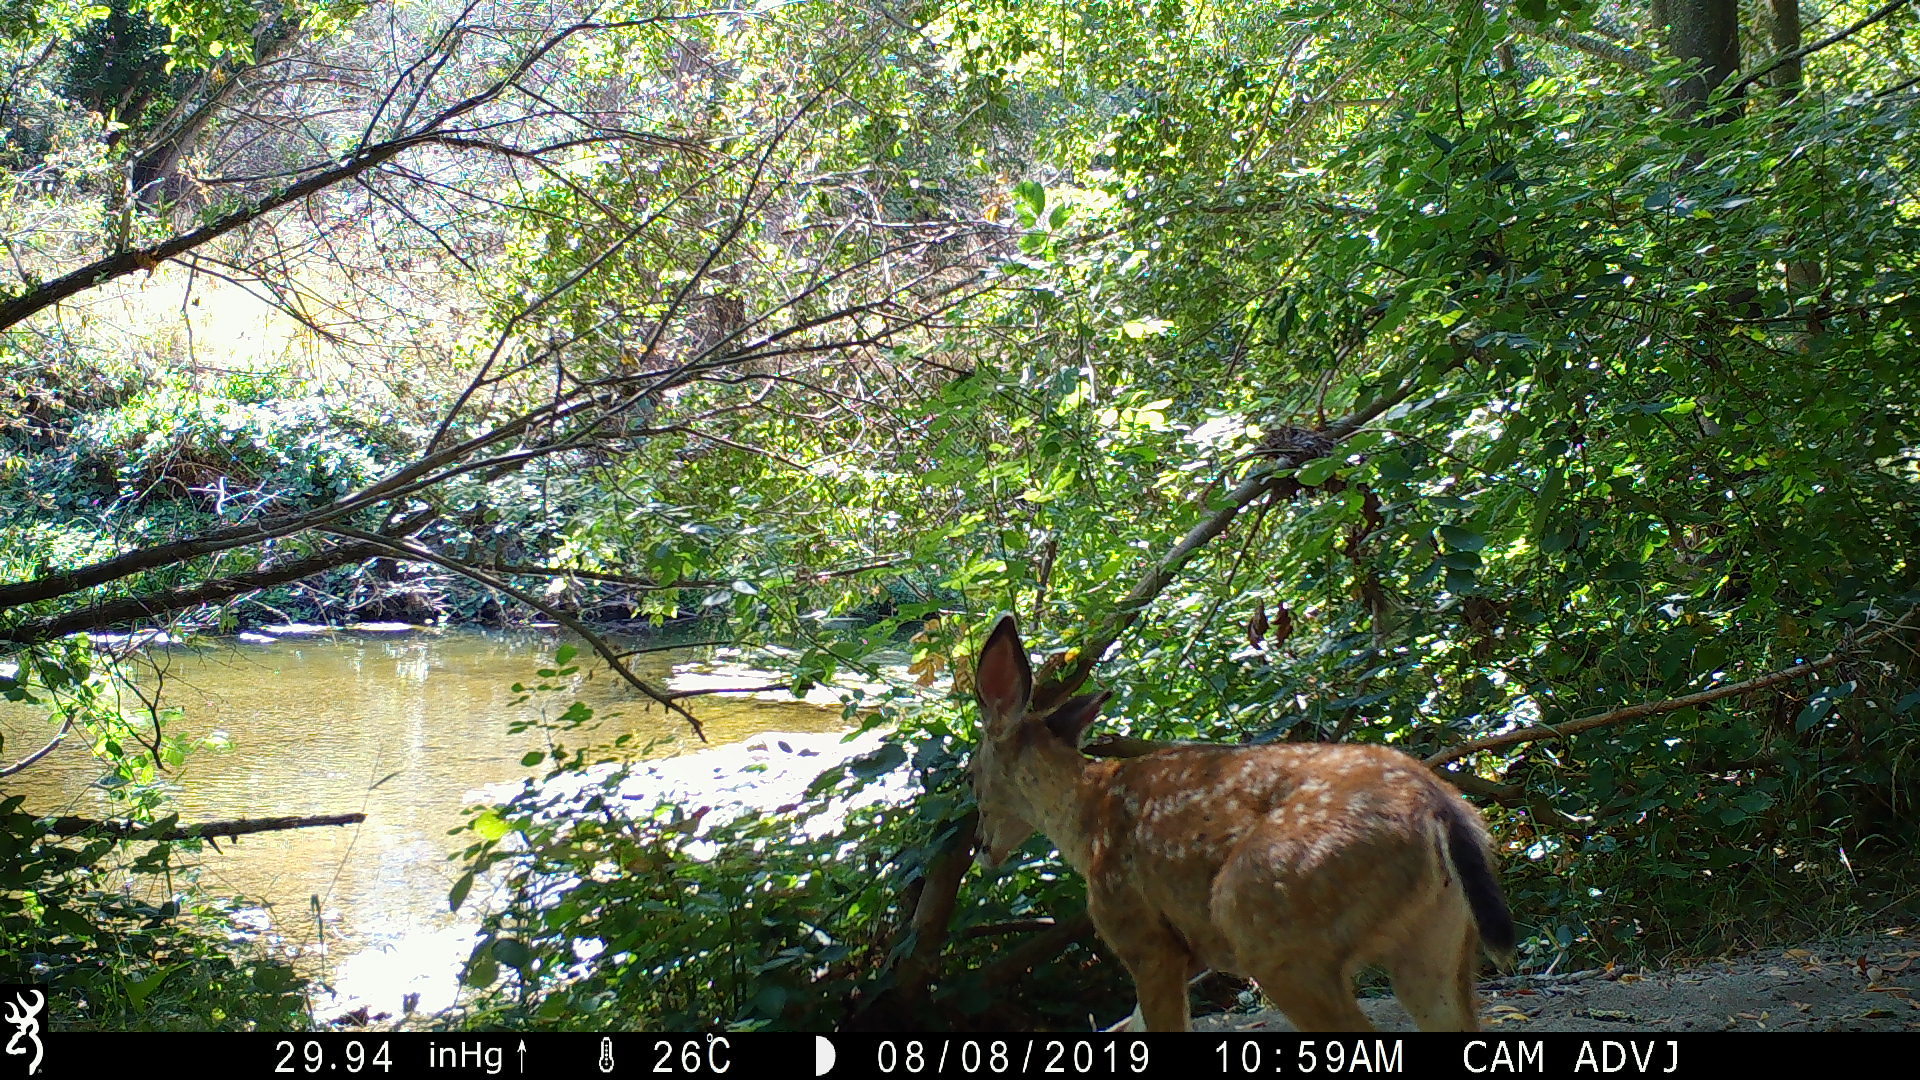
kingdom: Animalia
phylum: Chordata
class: Mammalia
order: Artiodactyla
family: Cervidae
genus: Odocoileus
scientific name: Odocoileus hemionus
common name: Mule deer
